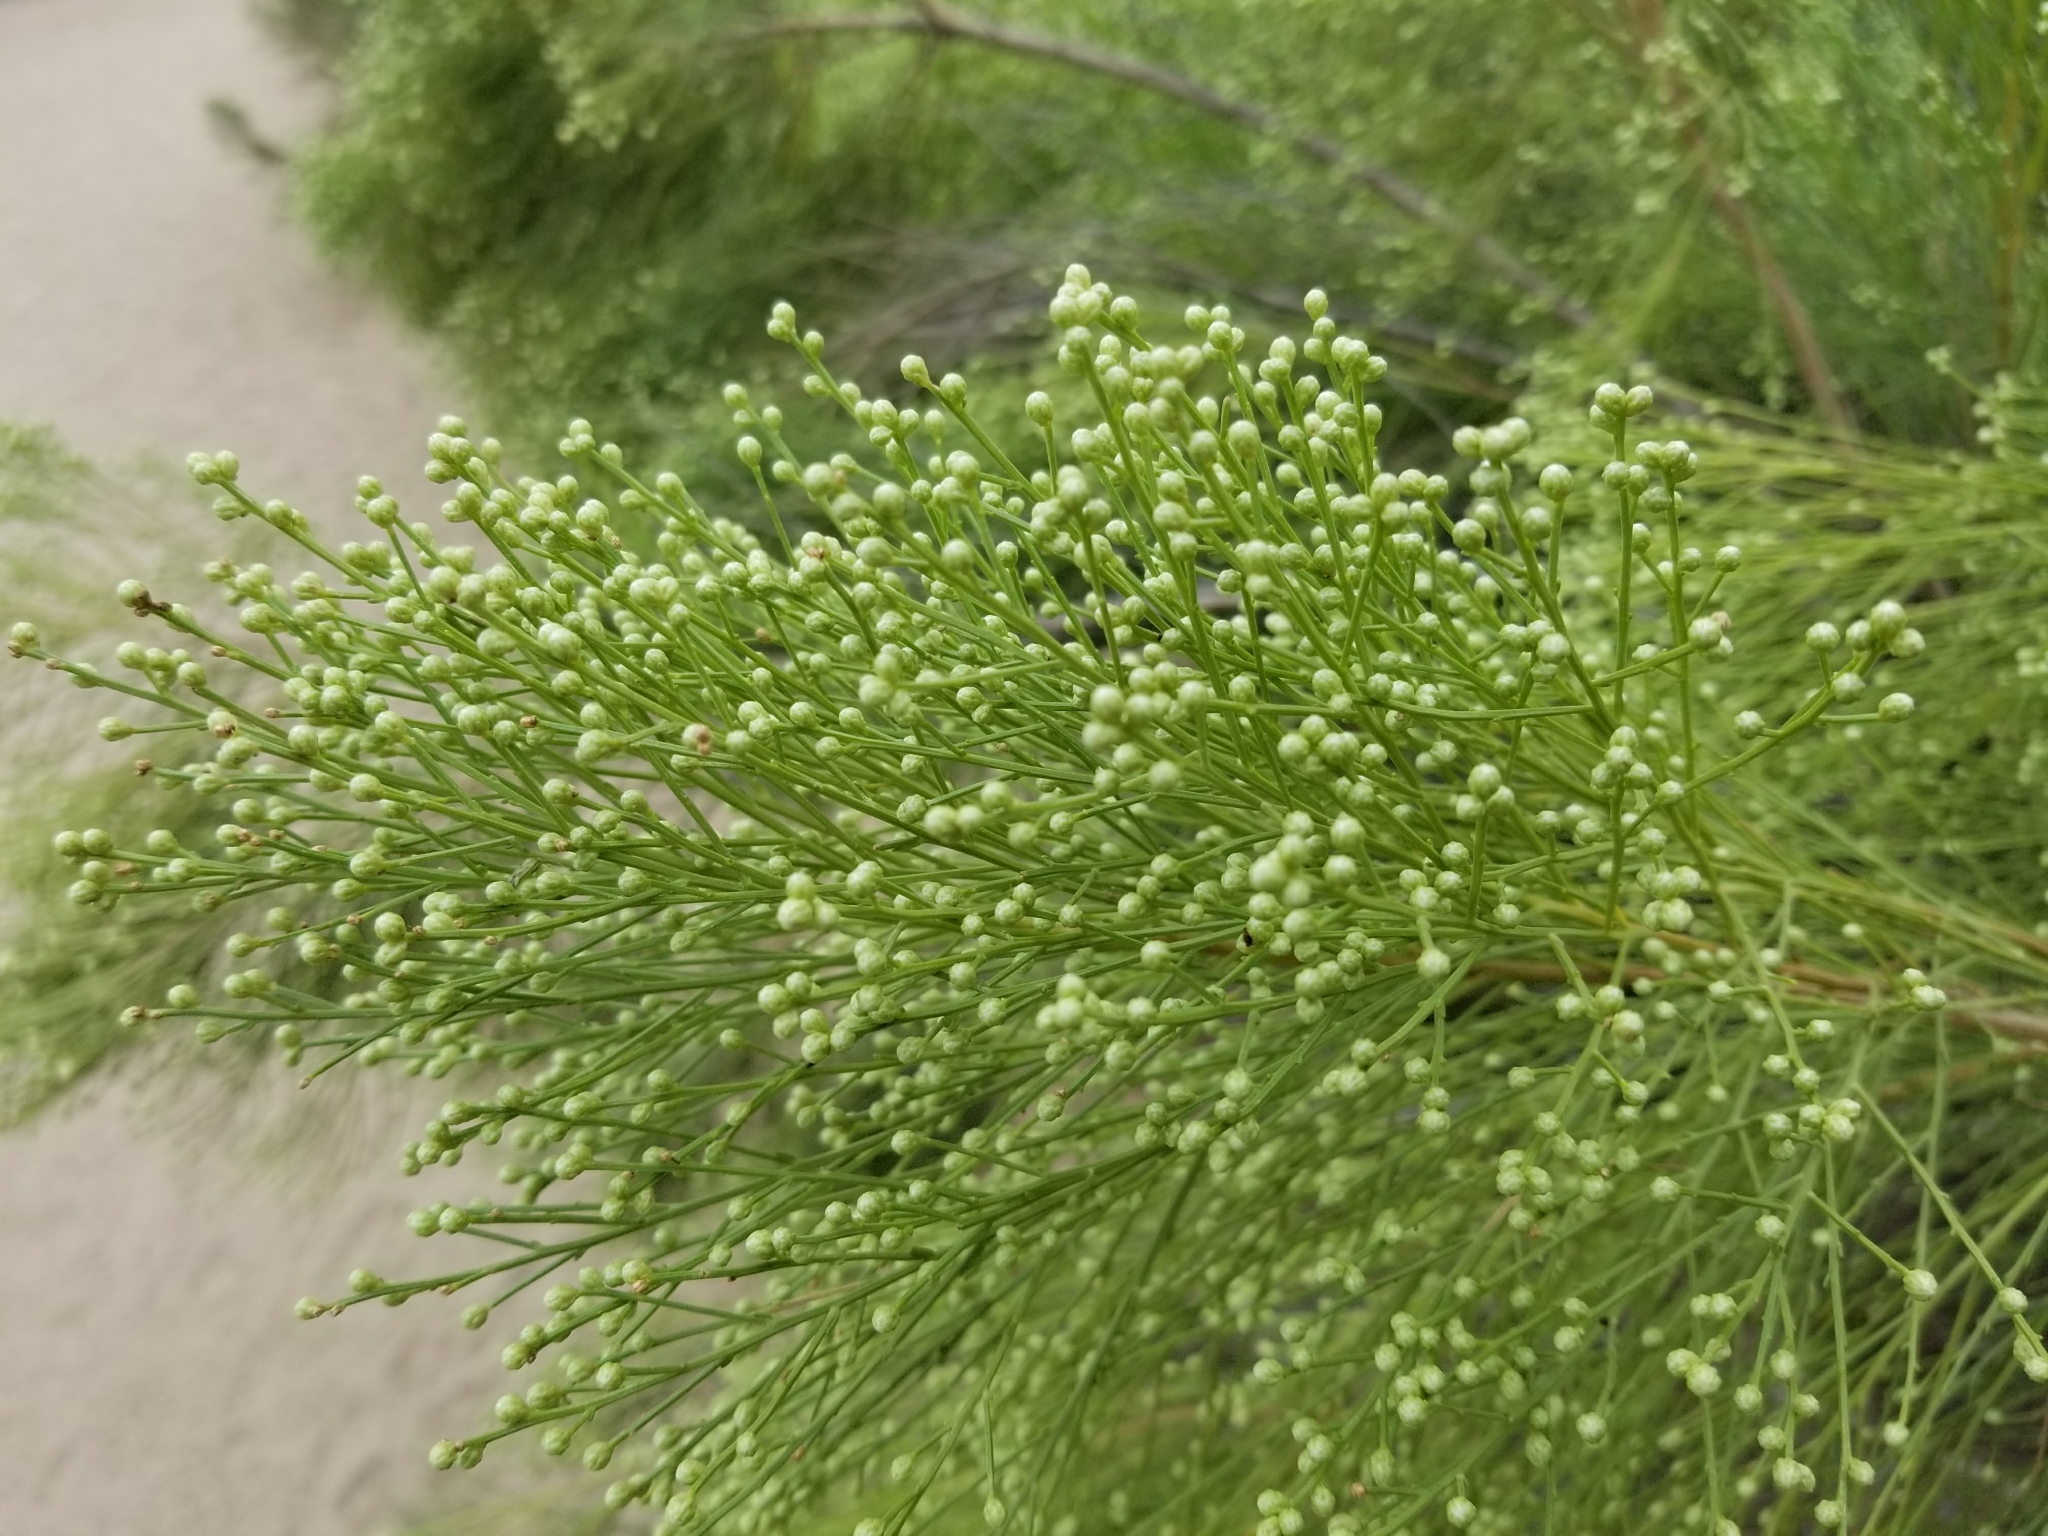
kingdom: Plantae
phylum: Tracheophyta
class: Magnoliopsida
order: Asterales
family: Asteraceae
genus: Baccharis
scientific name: Baccharis sarothroides
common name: Desert-broom
